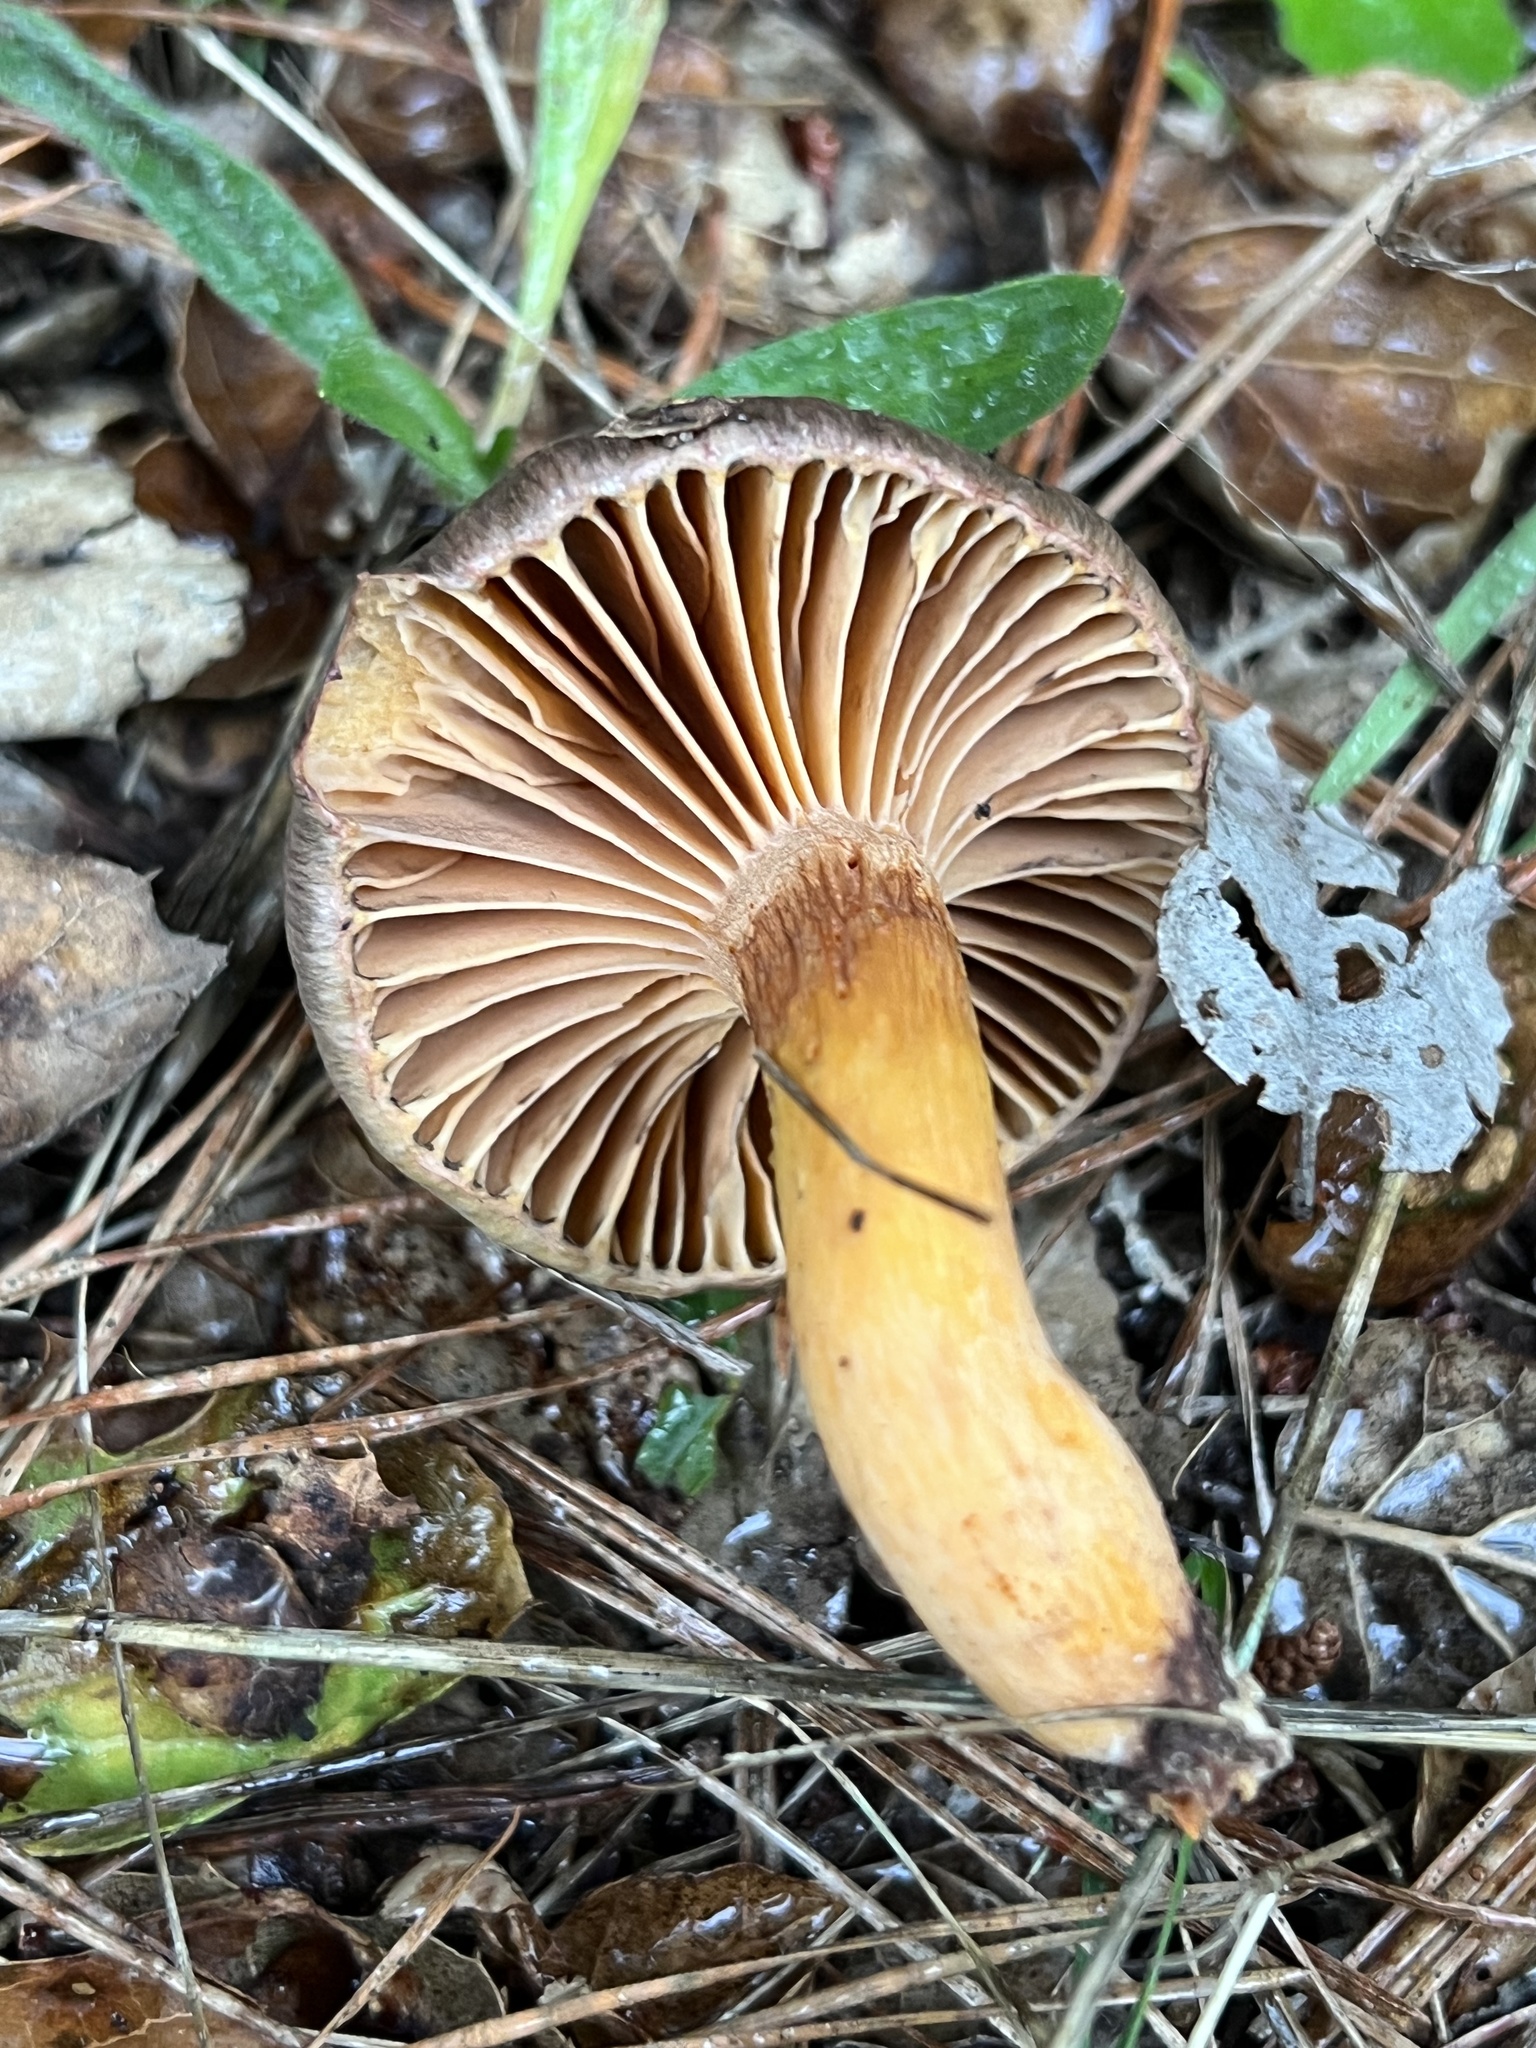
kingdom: Fungi
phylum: Basidiomycota
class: Agaricomycetes
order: Boletales
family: Gomphidiaceae
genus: Chroogomphus
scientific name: Chroogomphus ochraceus
